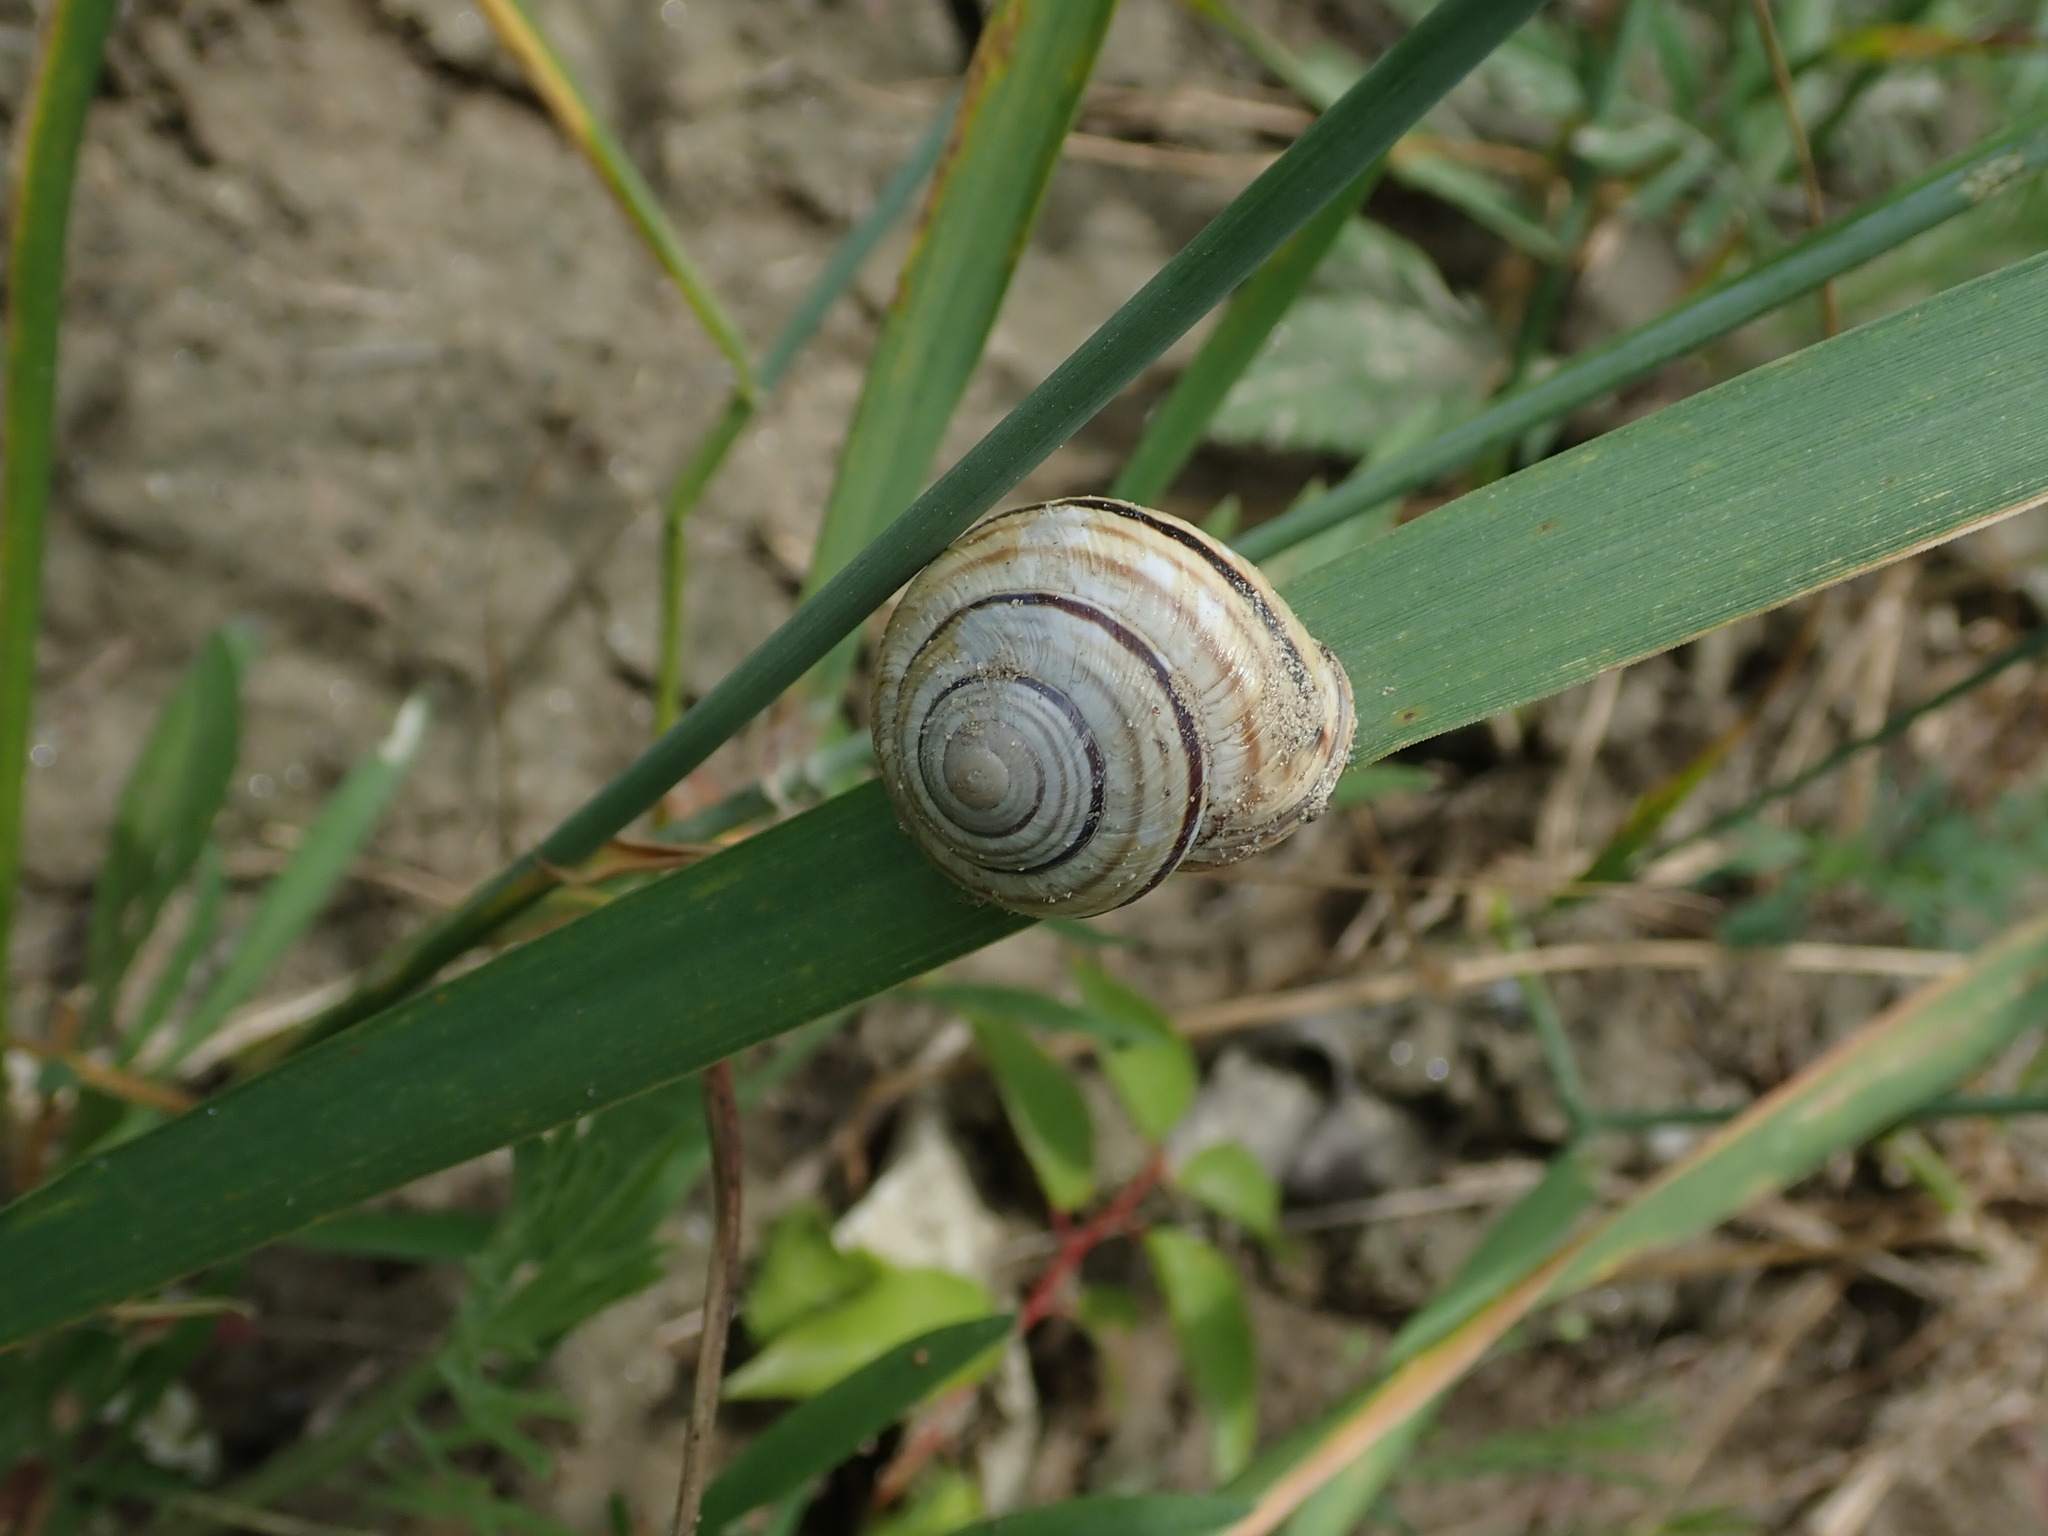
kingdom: Animalia
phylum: Mollusca
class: Gastropoda
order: Stylommatophora
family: Helicidae
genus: Caucasotachea
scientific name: Caucasotachea vindobonensis
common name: European helicid land snail
